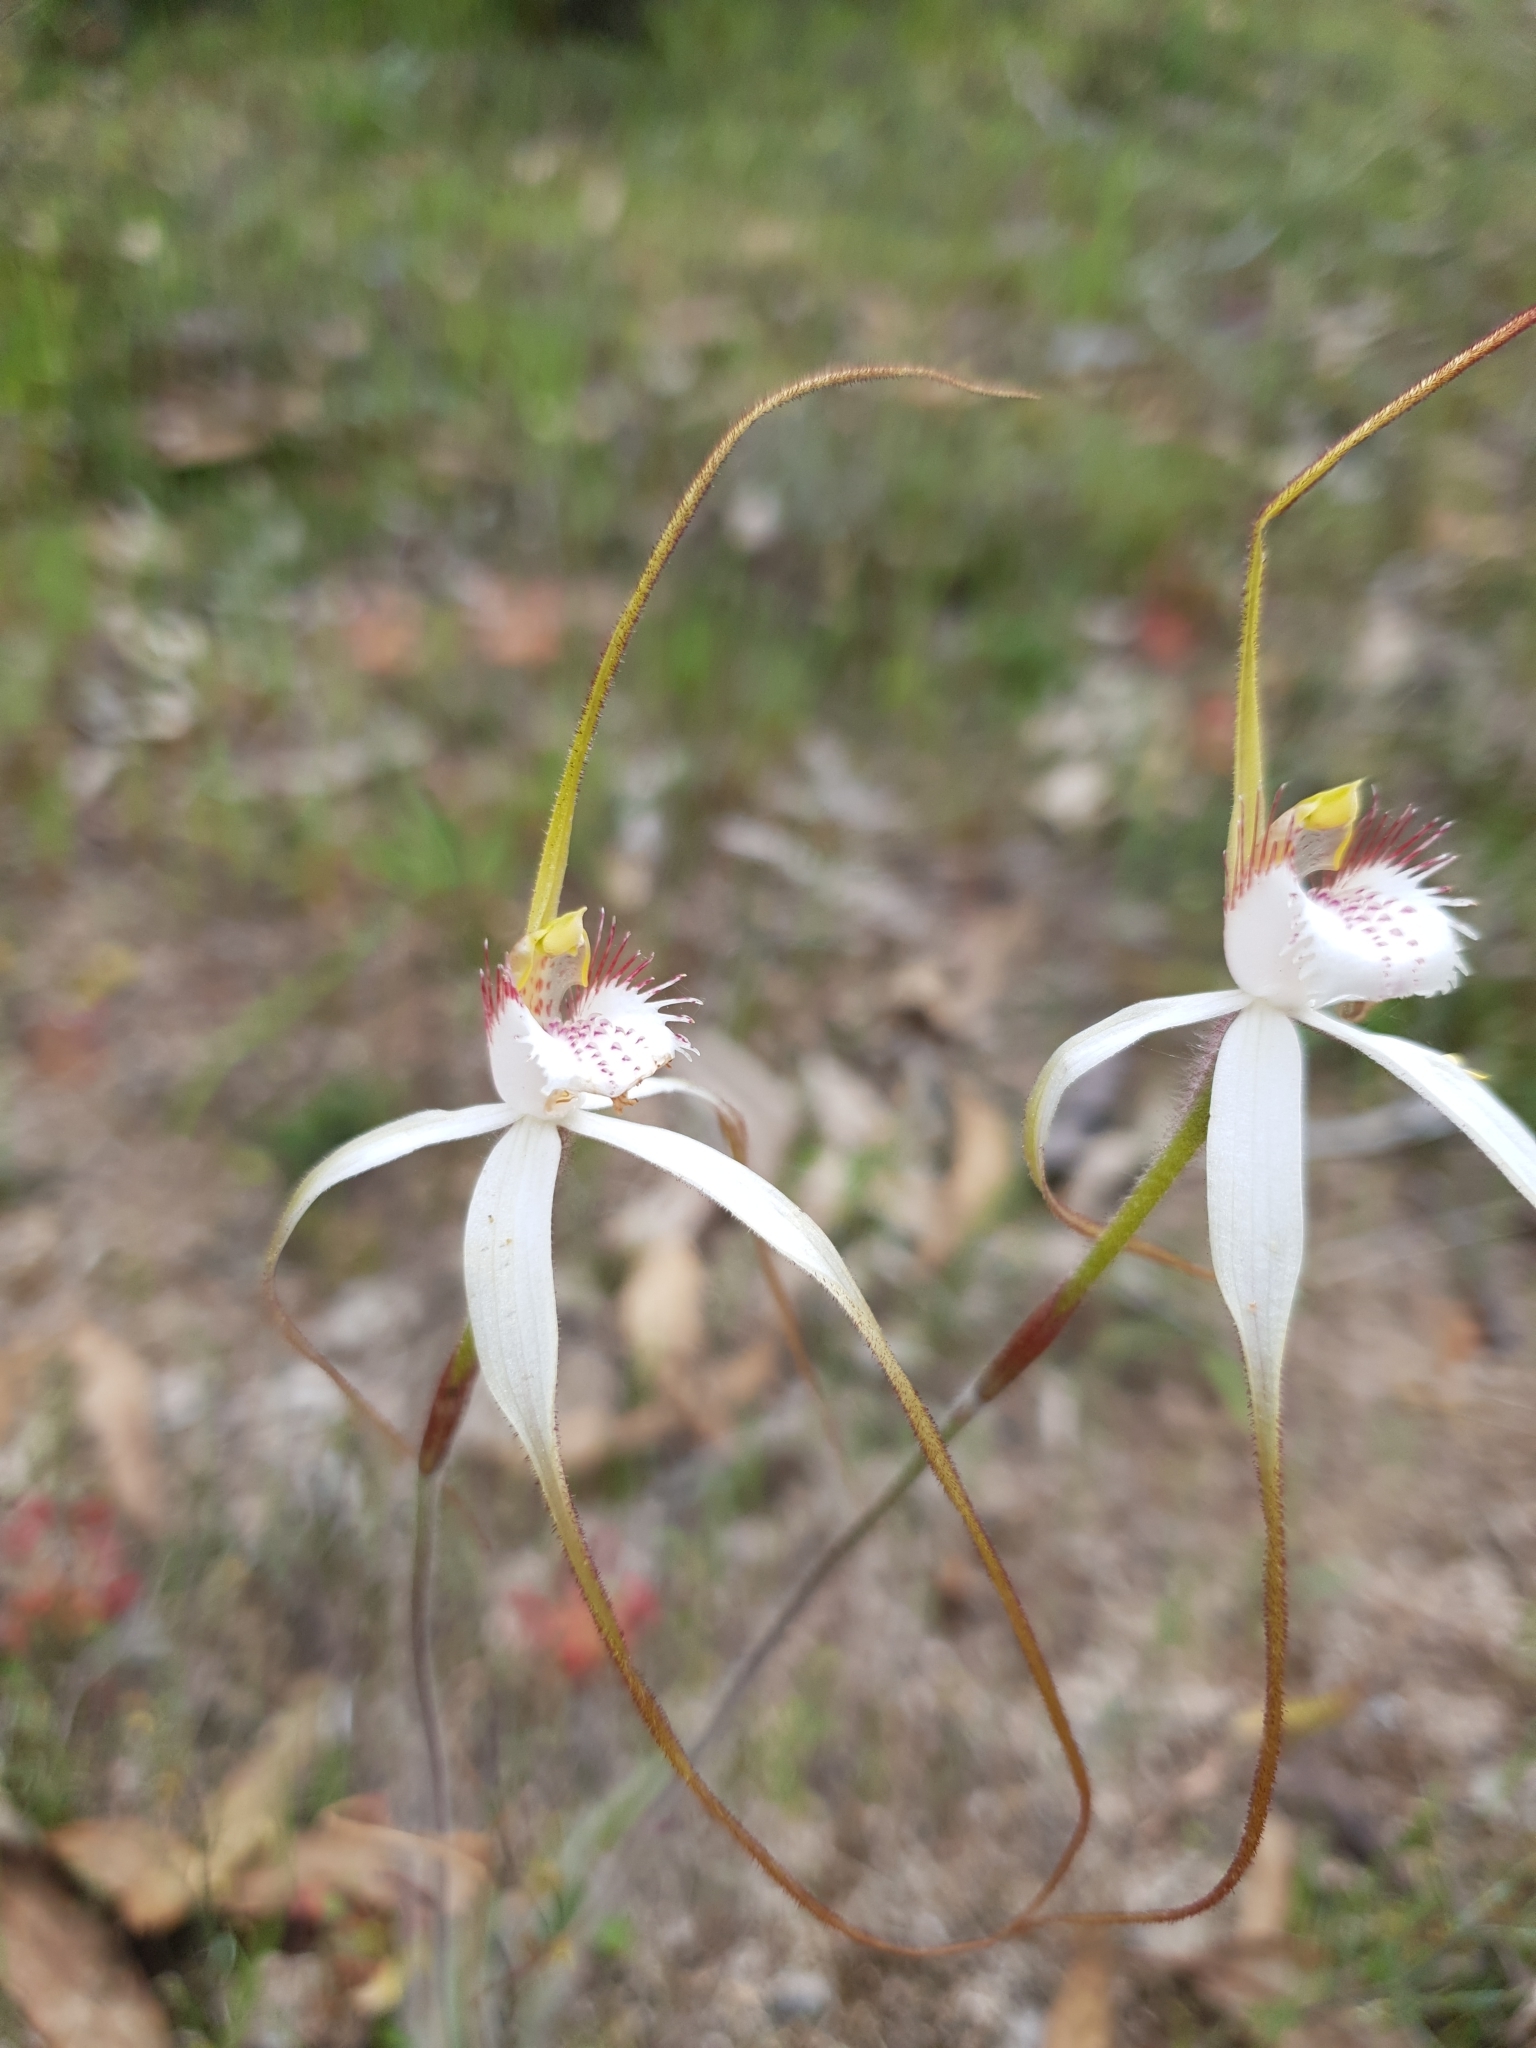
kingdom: Plantae
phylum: Tracheophyta
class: Liliopsida
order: Asparagales
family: Orchidaceae
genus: Caladenia
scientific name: Caladenia longicauda
